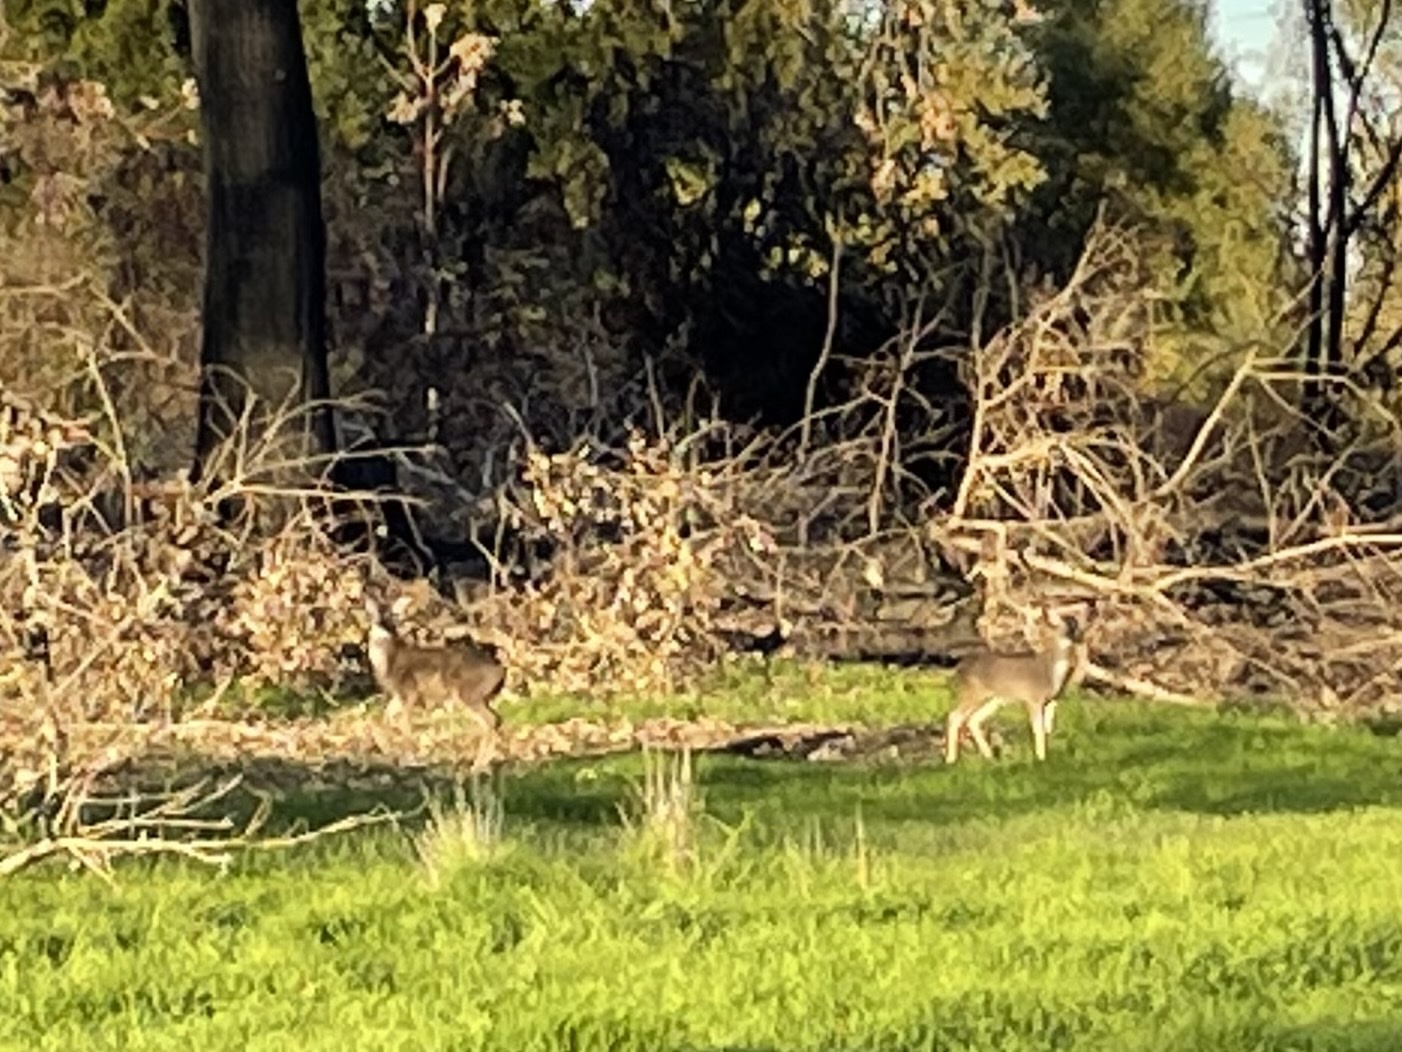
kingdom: Animalia
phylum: Chordata
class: Mammalia
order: Artiodactyla
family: Cervidae
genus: Odocoileus
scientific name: Odocoileus hemionus
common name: Mule deer
